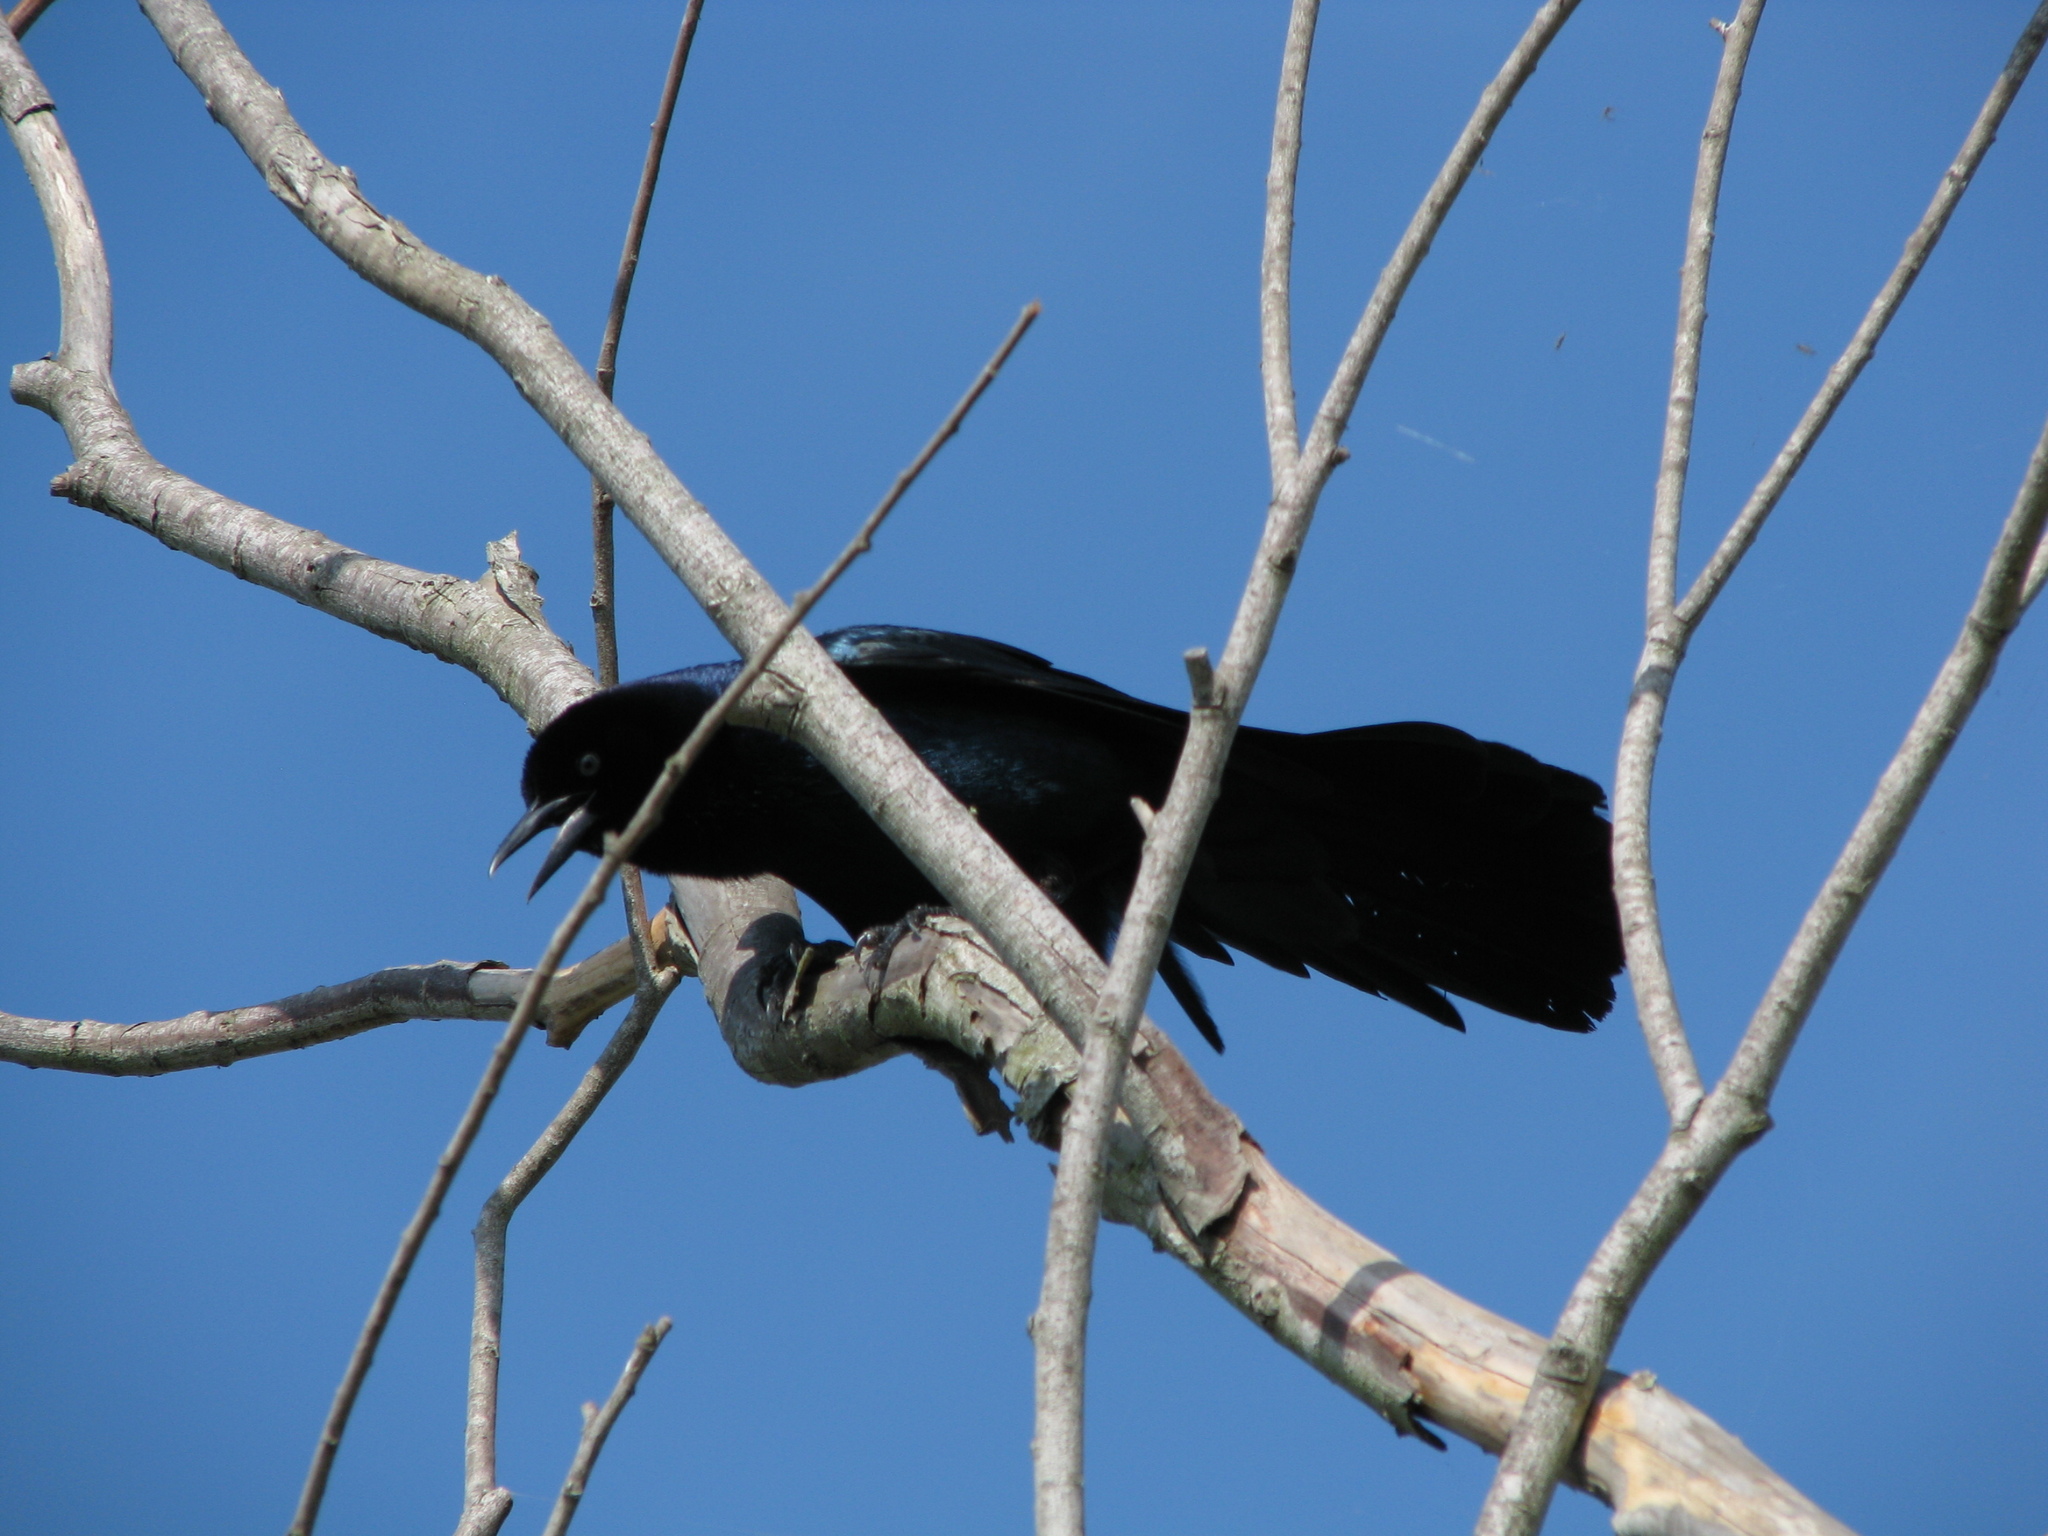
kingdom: Animalia
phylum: Chordata
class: Aves
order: Passeriformes
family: Icteridae
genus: Quiscalus
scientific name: Quiscalus major
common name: Boat-tailed grackle
